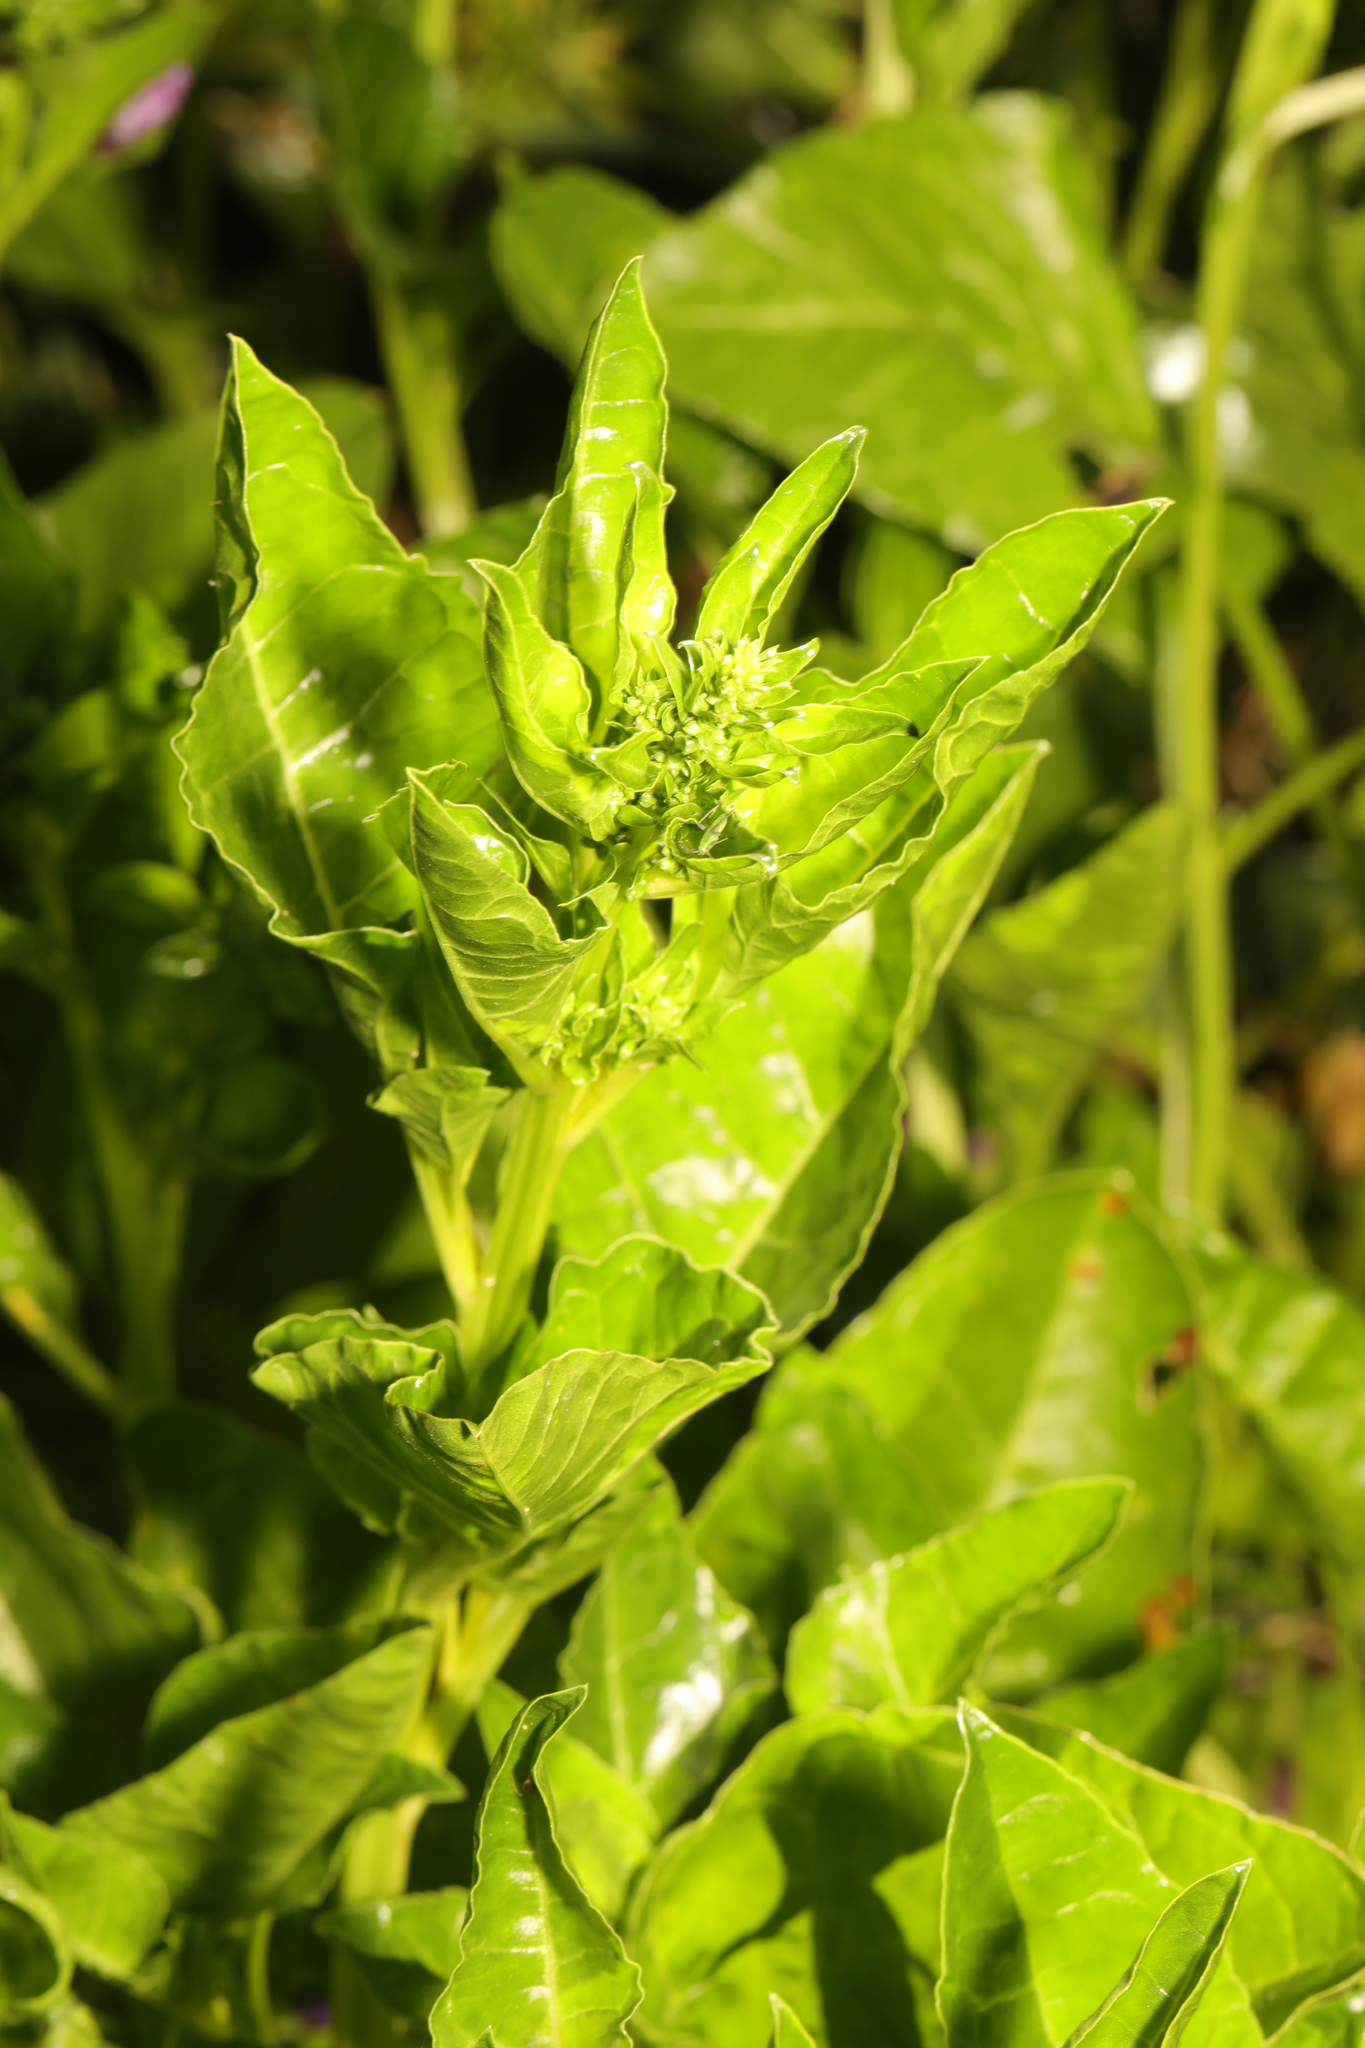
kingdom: Plantae
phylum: Tracheophyta
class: Magnoliopsida
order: Caryophyllales
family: Amaranthaceae
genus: Beta
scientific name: Beta vulgaris
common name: Beet
